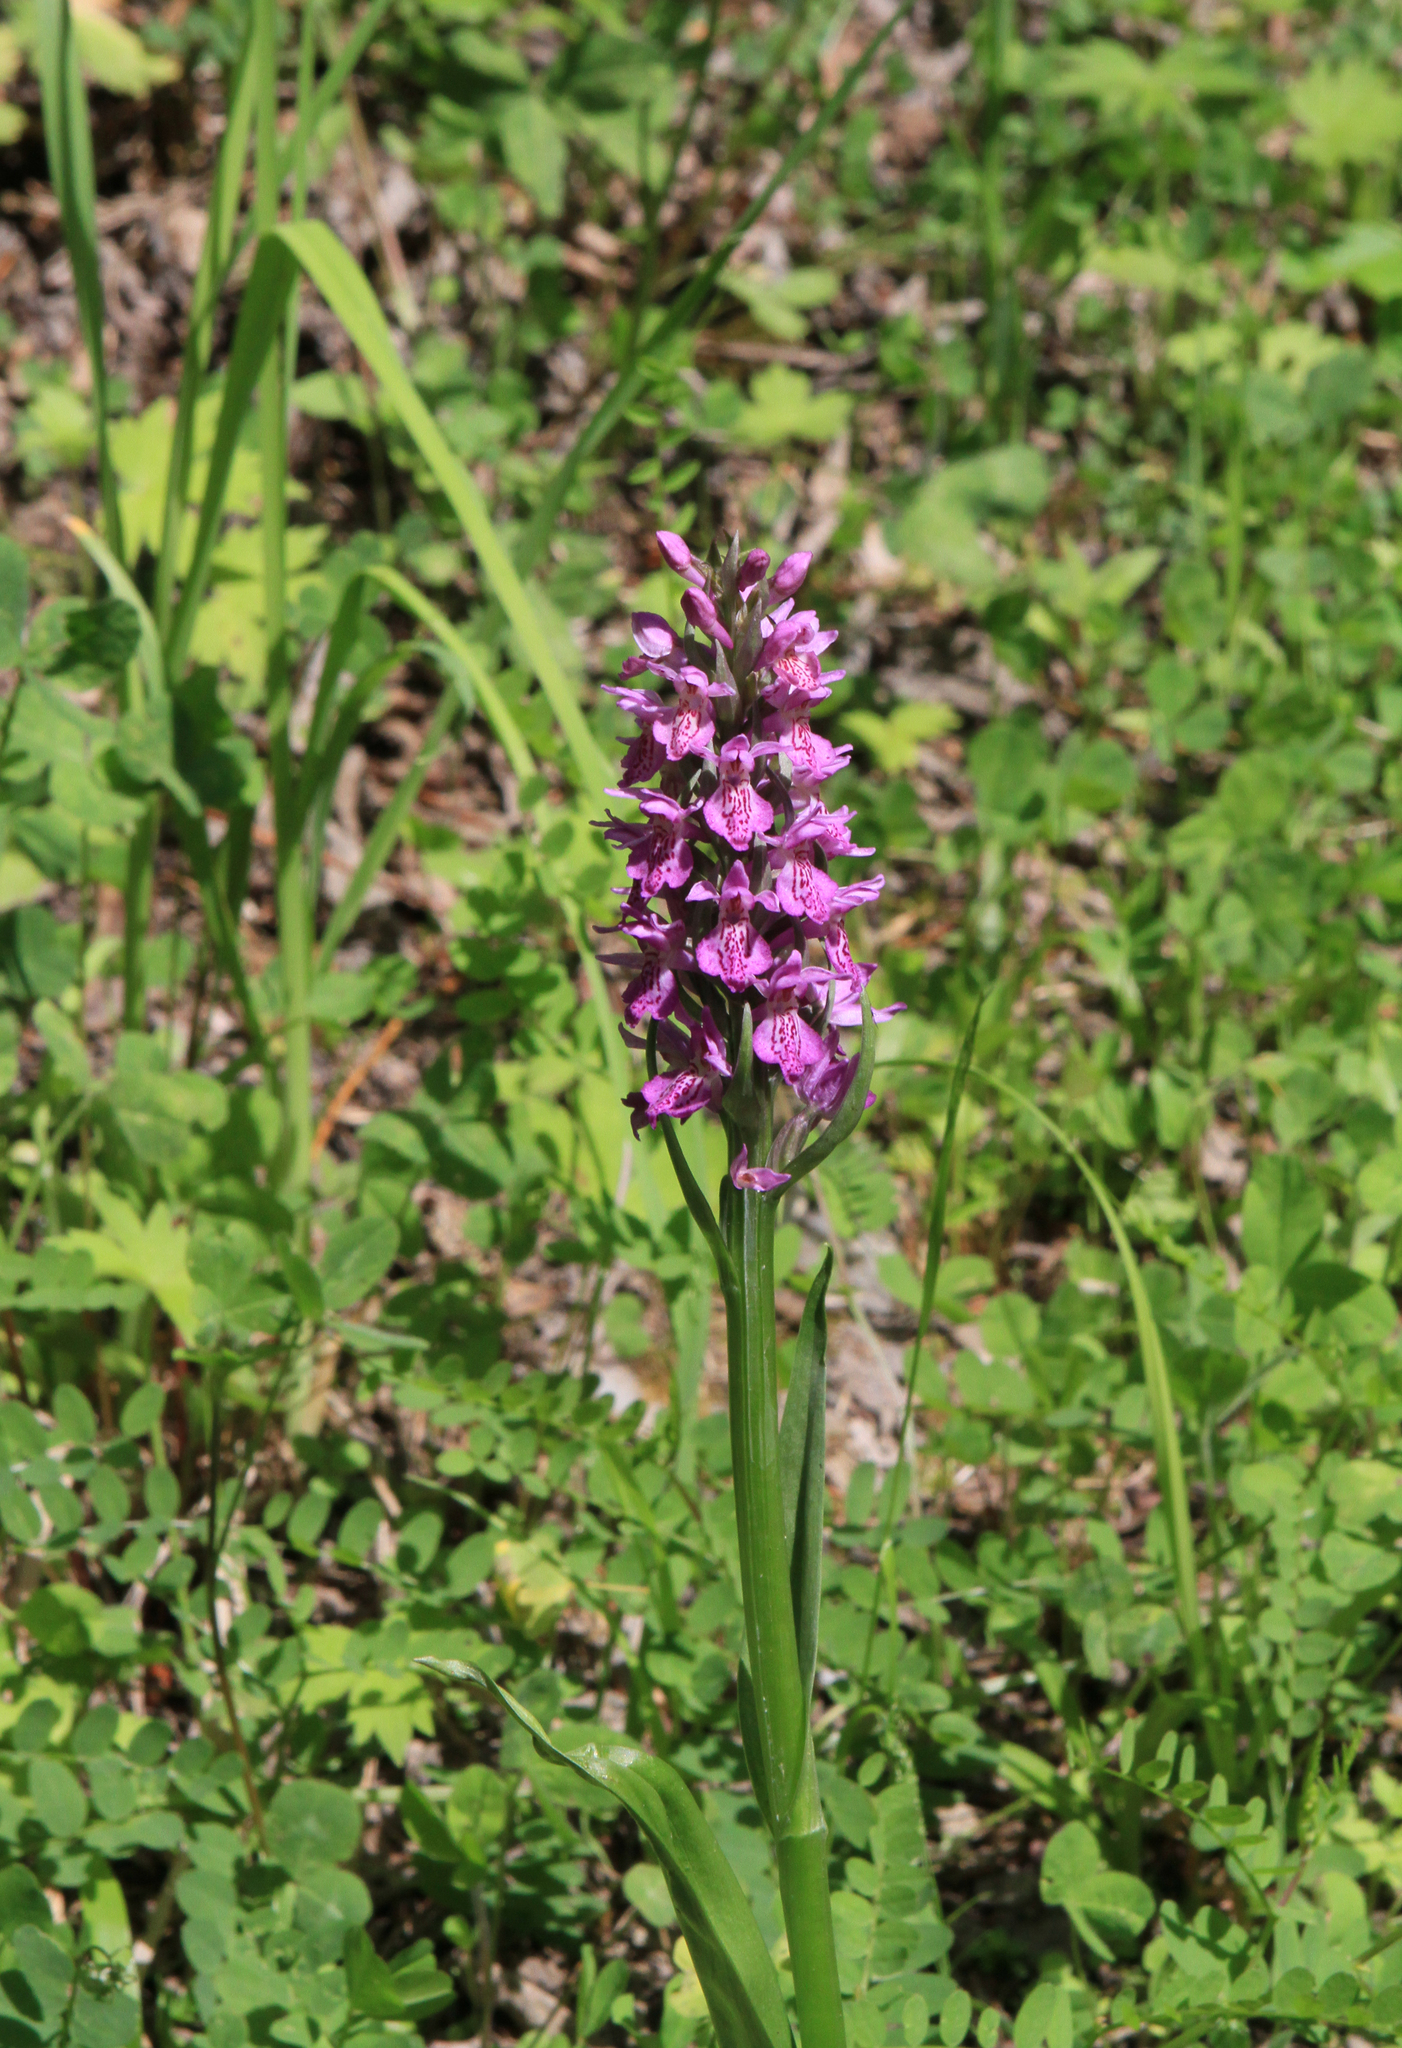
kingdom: Plantae
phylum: Tracheophyta
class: Liliopsida
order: Asparagales
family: Orchidaceae
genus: Dactylorhiza
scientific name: Dactylorhiza sibirica
